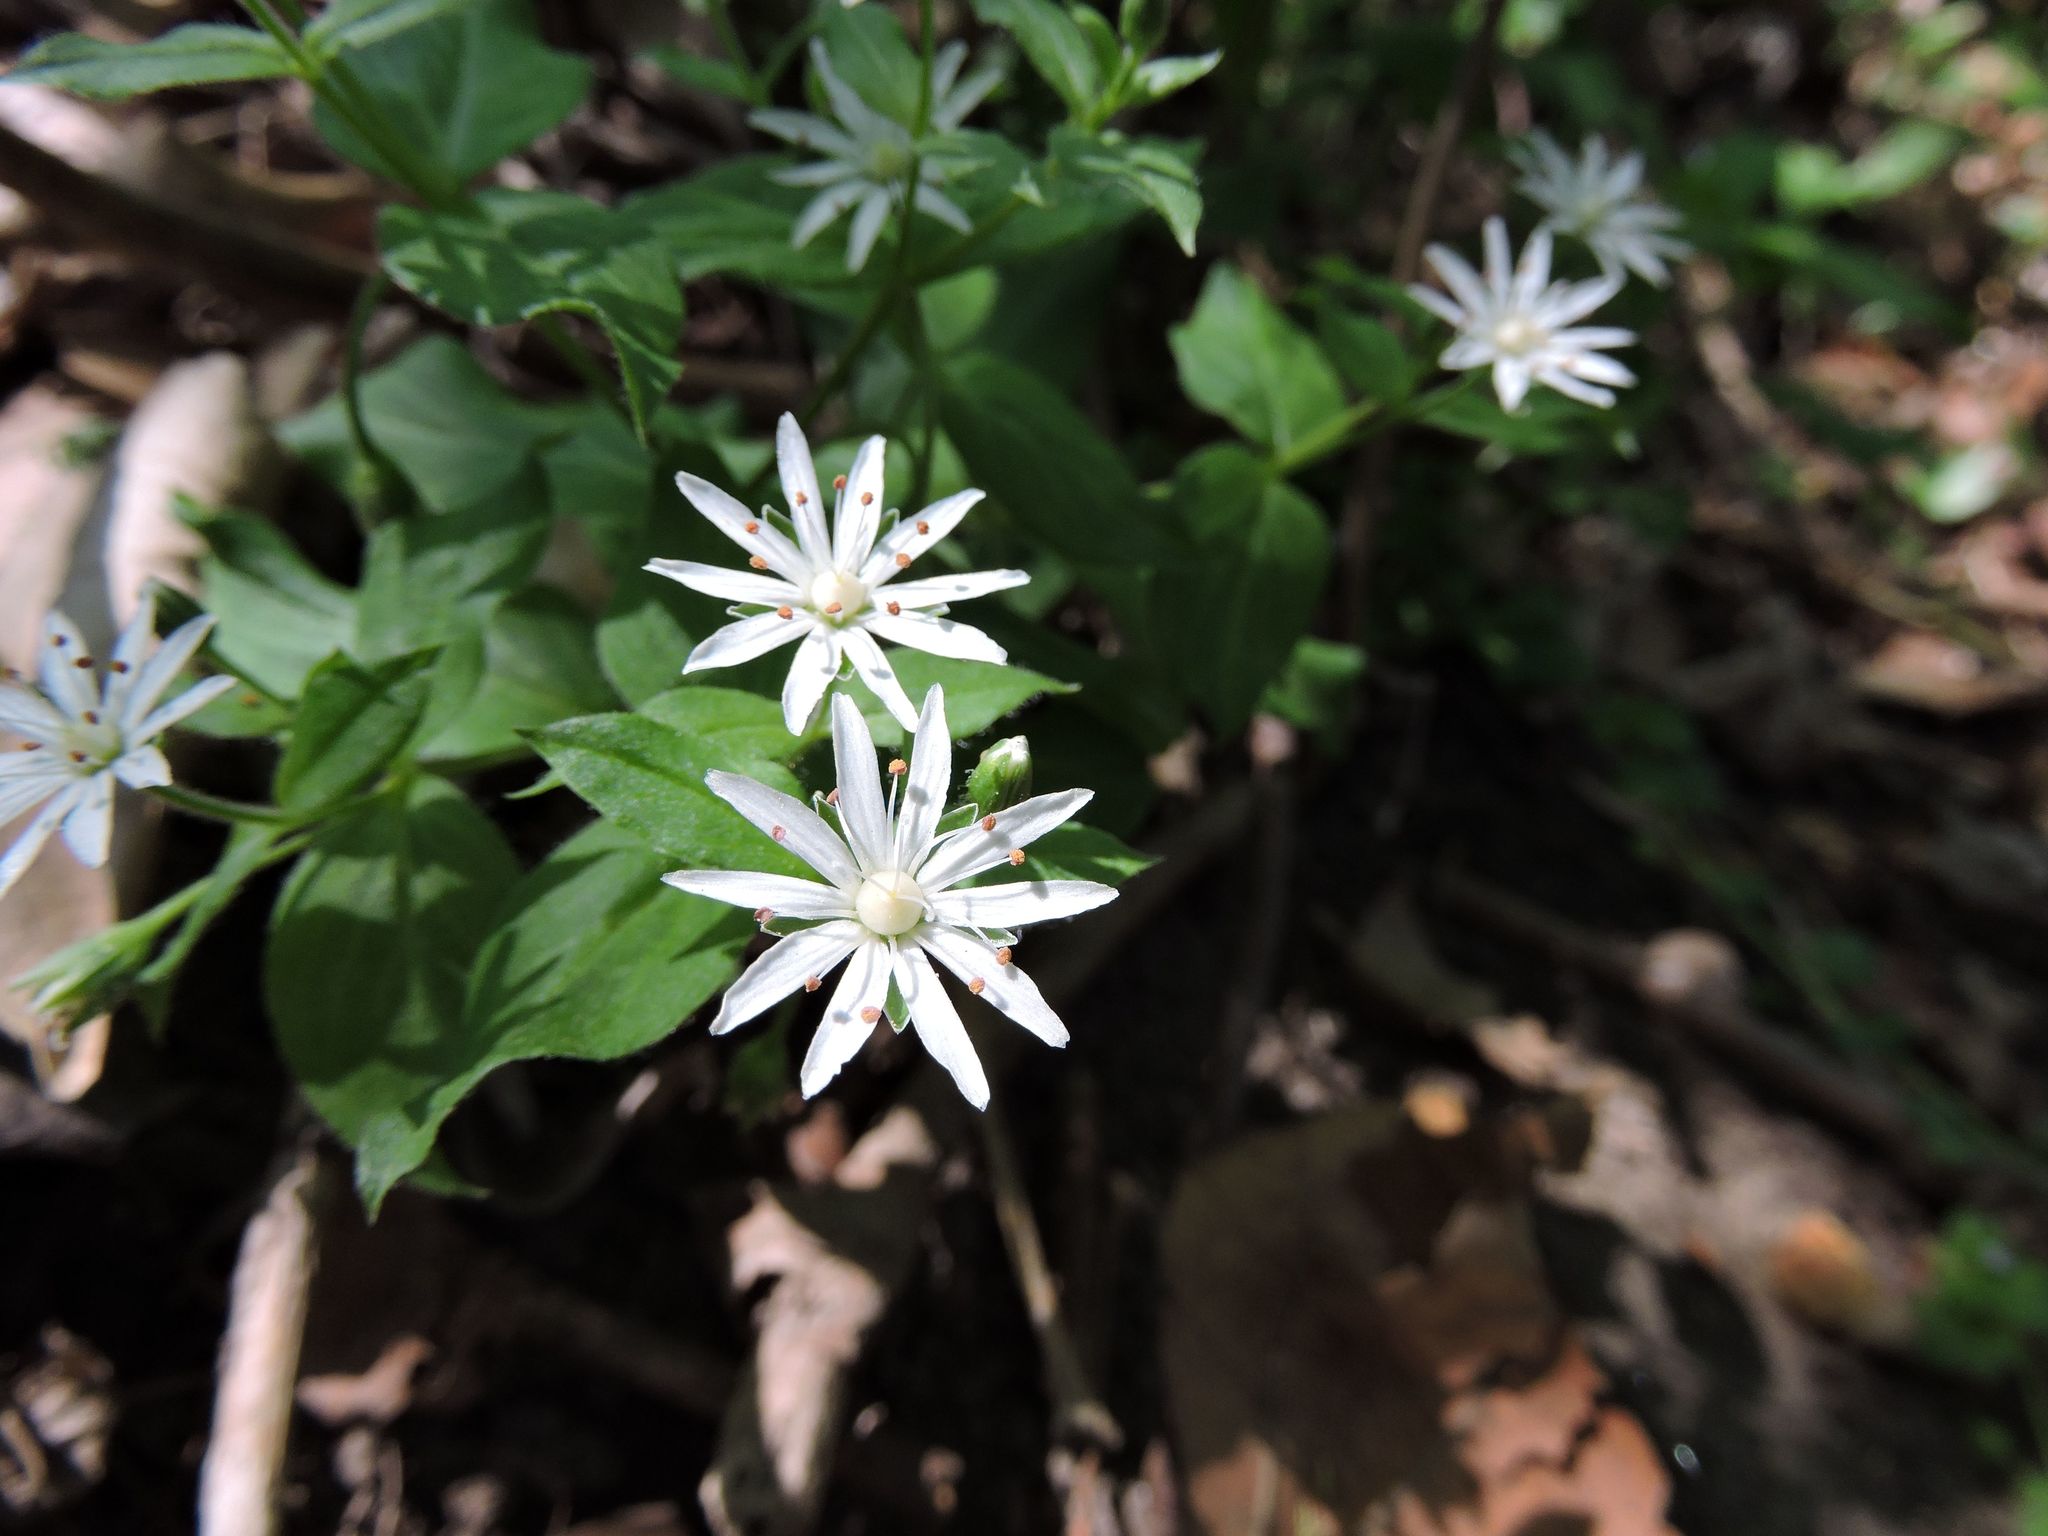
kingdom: Plantae
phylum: Tracheophyta
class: Magnoliopsida
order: Caryophyllales
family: Caryophyllaceae
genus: Stellaria
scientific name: Stellaria pubera
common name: Star chickweed
